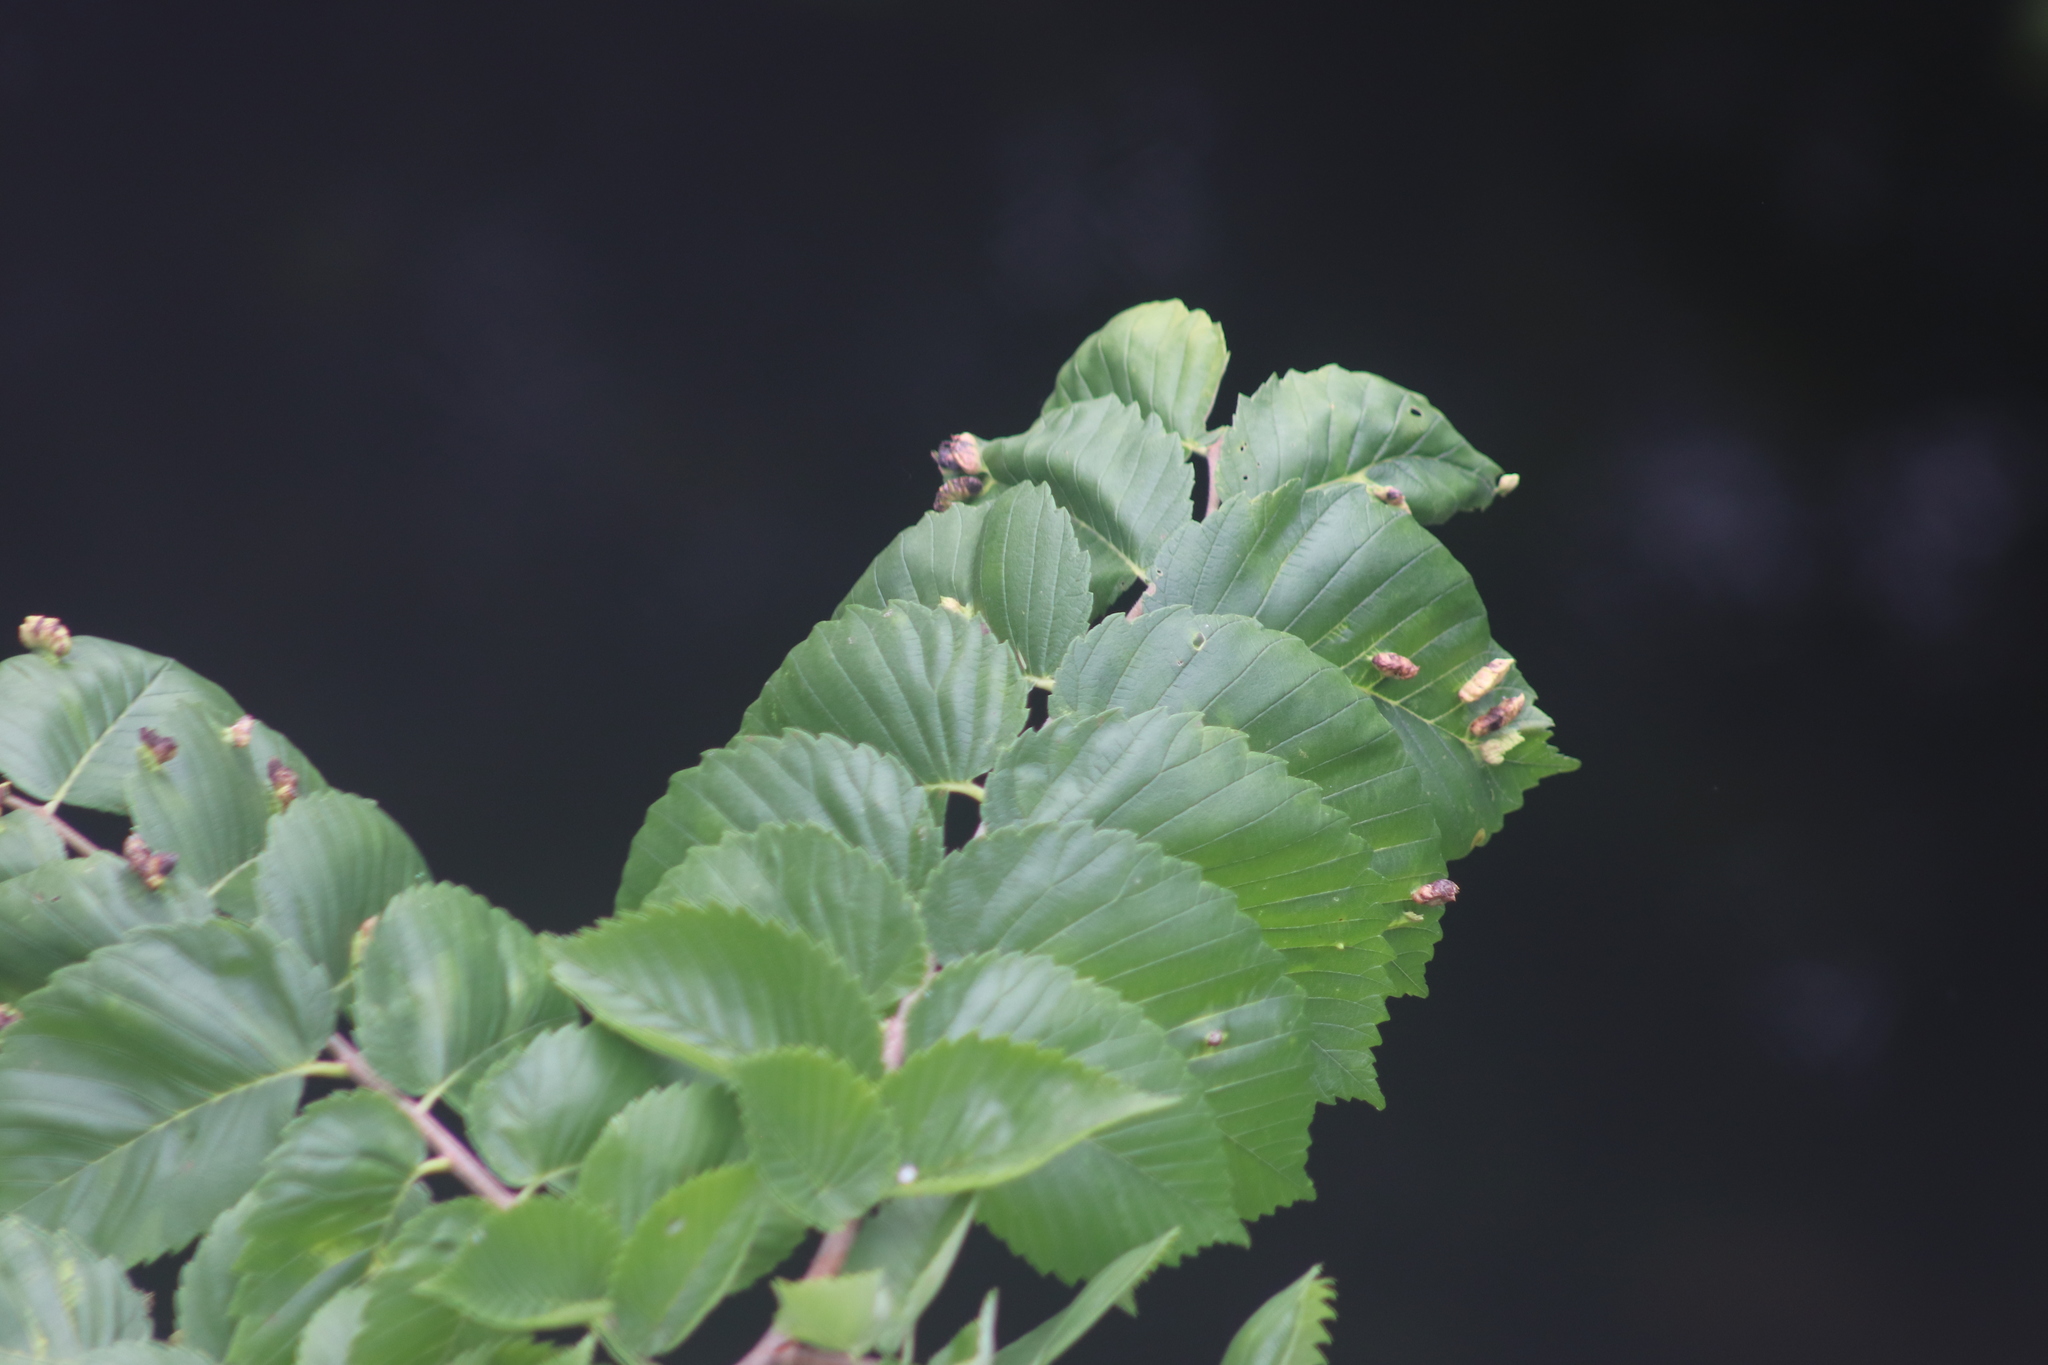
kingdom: Animalia
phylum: Arthropoda
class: Insecta
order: Hemiptera
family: Aphididae
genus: Colopha
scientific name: Colopha ulmicola
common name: Elm cockscombgall aphid
